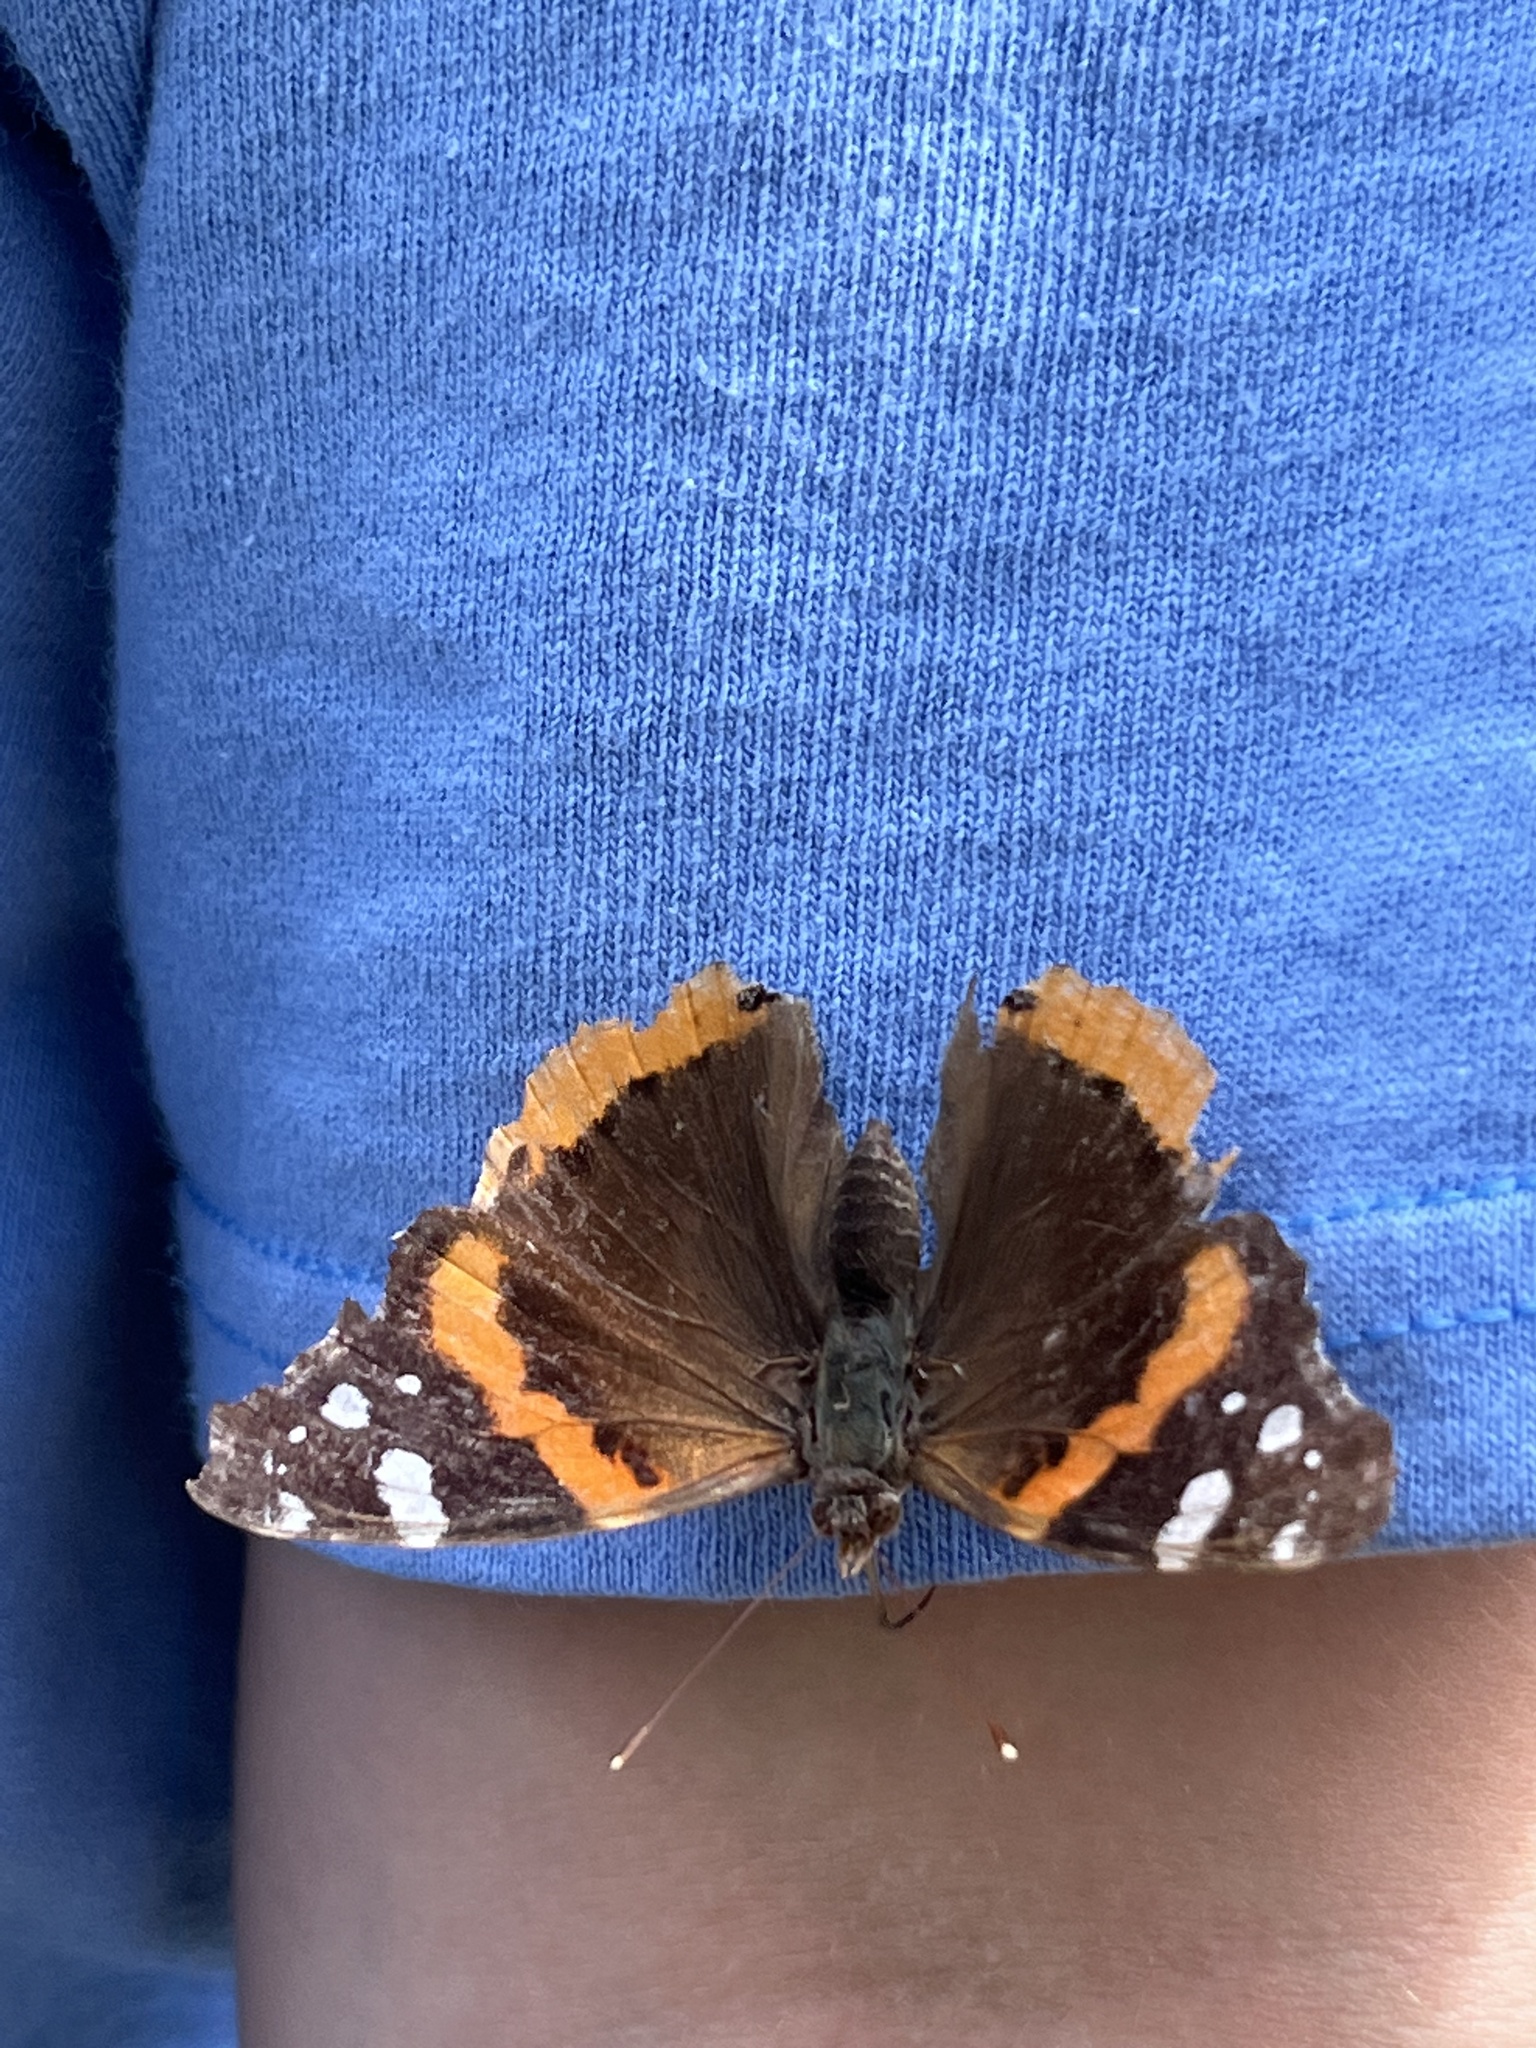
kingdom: Animalia
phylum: Arthropoda
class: Insecta
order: Lepidoptera
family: Nymphalidae
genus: Vanessa
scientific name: Vanessa atalanta
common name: Red admiral
